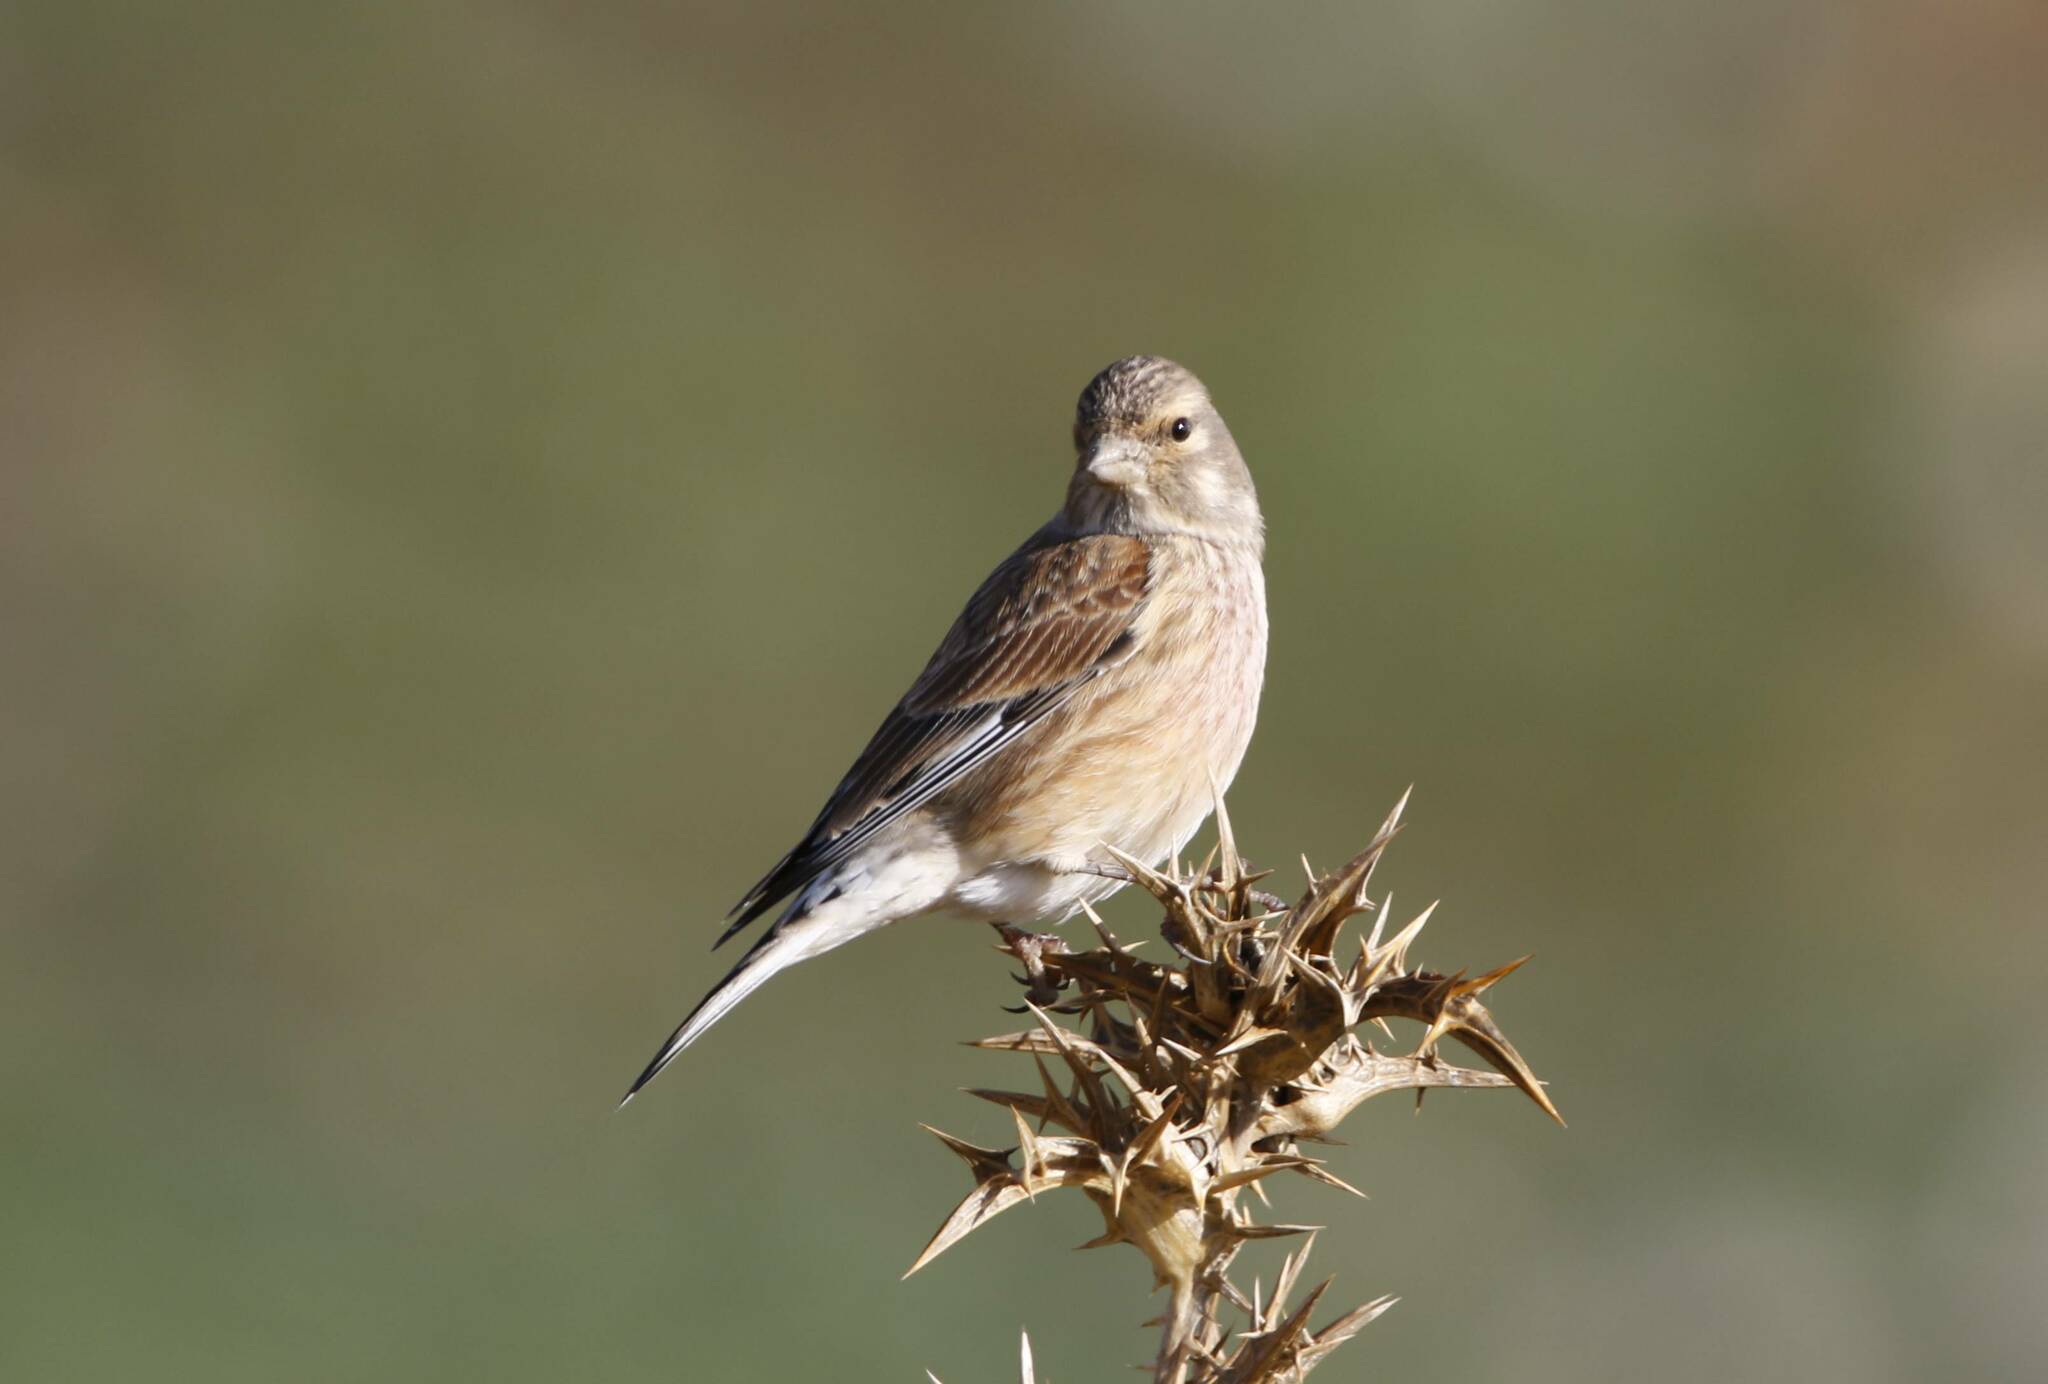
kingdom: Animalia
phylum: Chordata
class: Aves
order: Passeriformes
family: Fringillidae
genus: Linaria
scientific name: Linaria cannabina
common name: Common linnet
